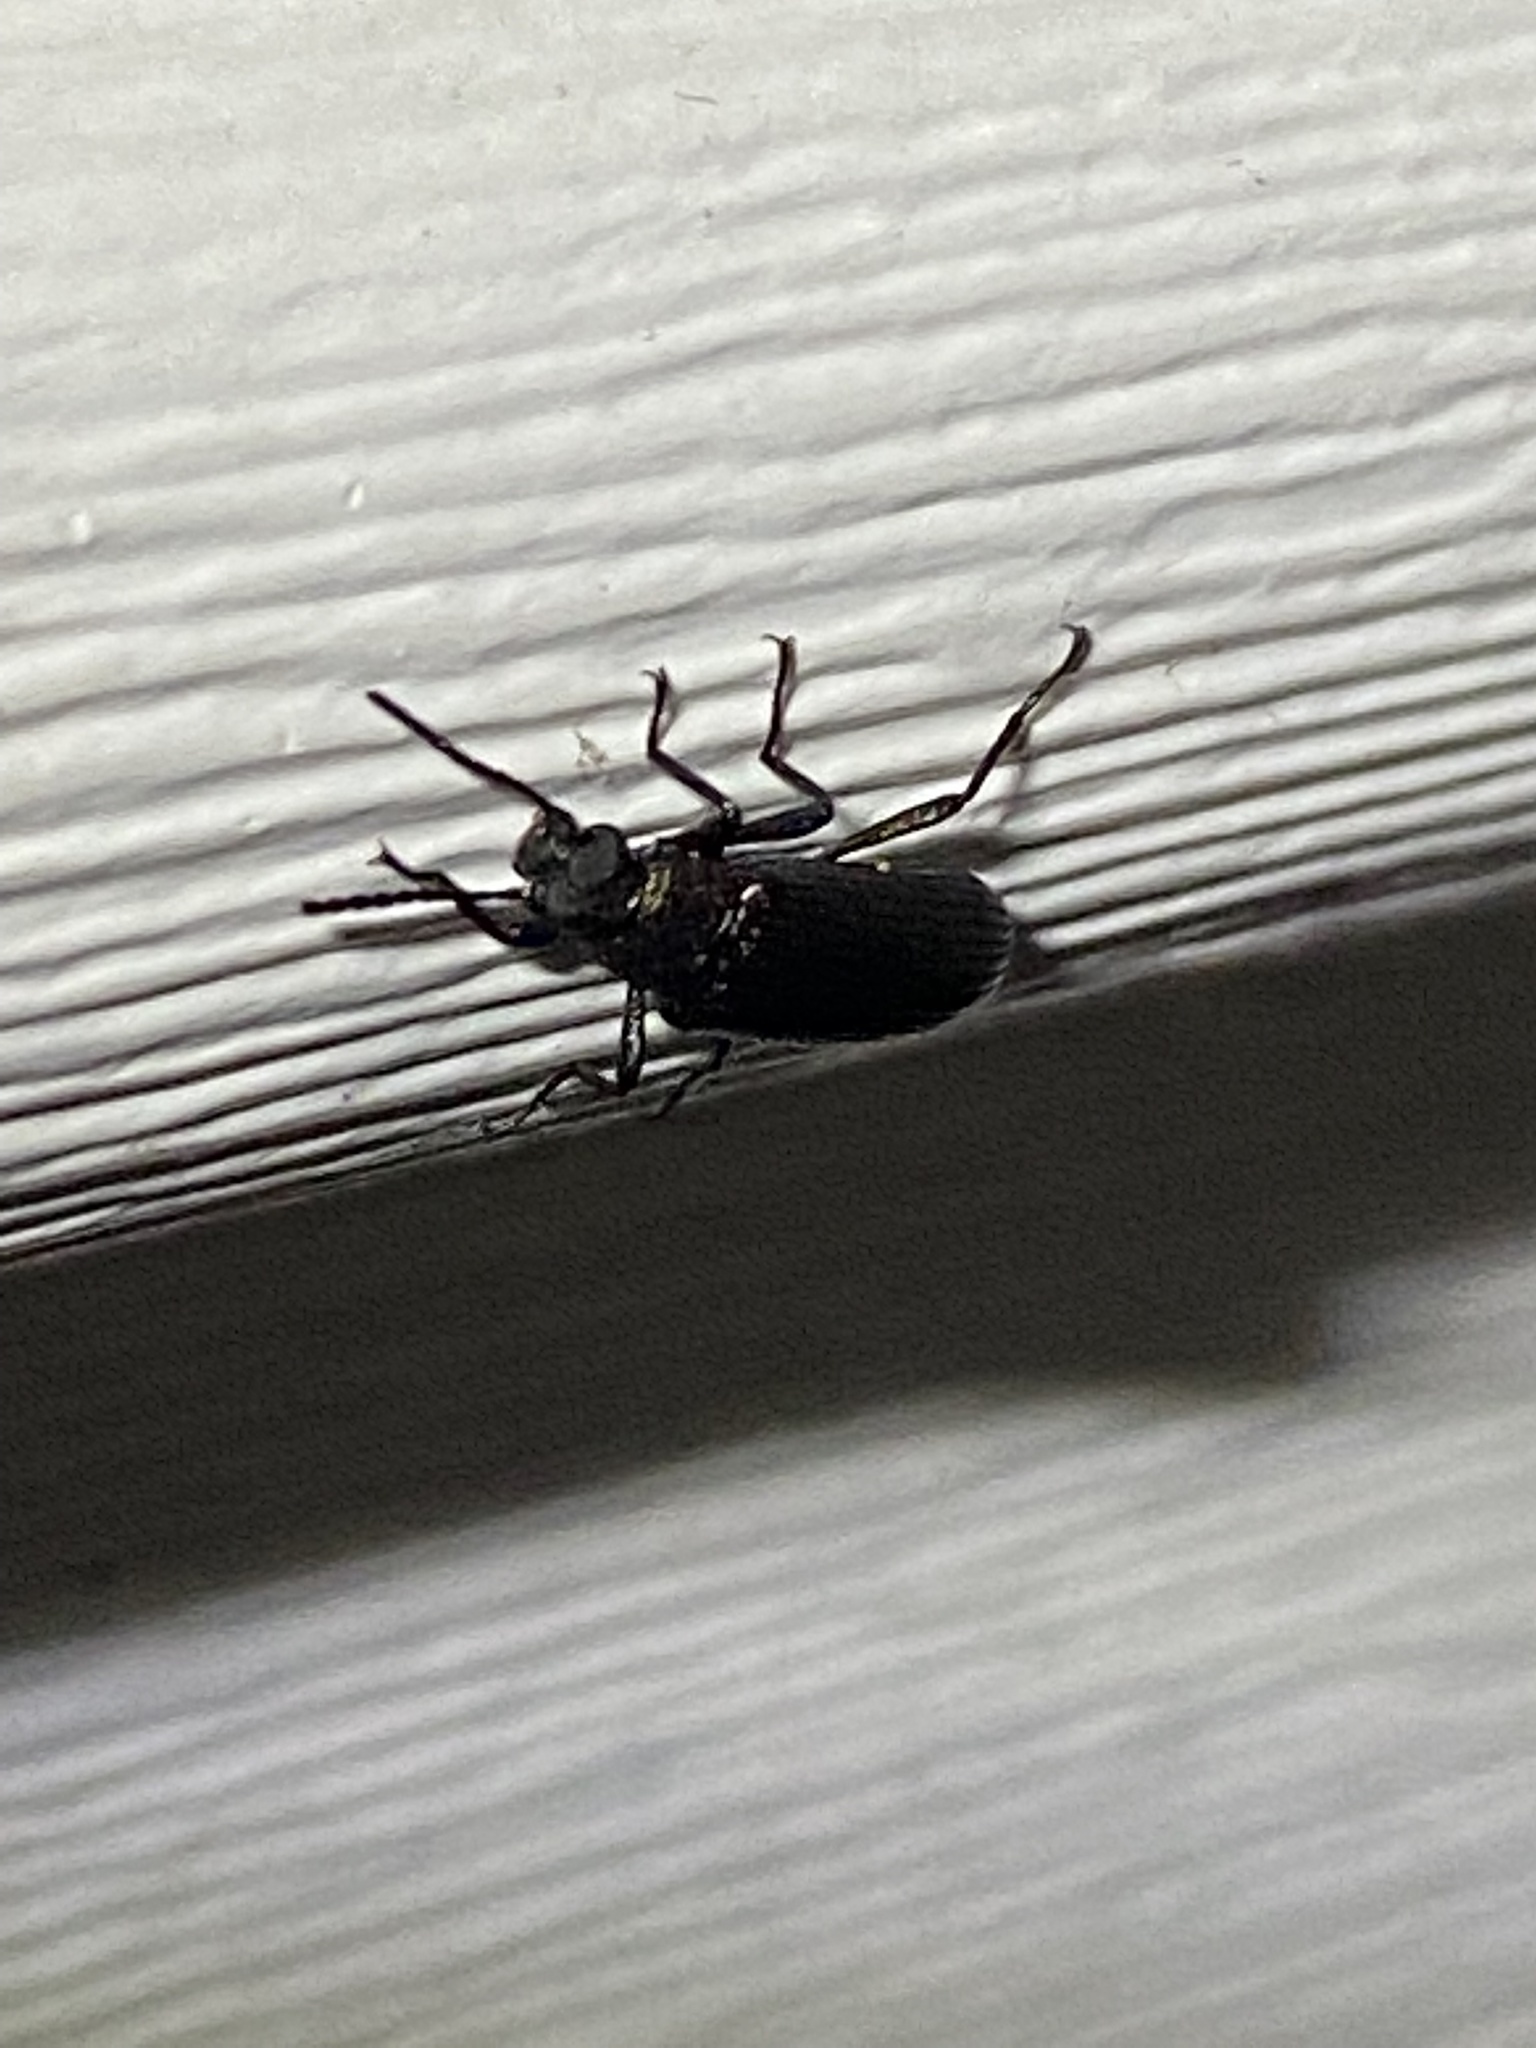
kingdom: Animalia
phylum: Arthropoda
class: Insecta
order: Coleoptera
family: Tenebrionidae
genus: Strongylium
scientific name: Strongylium
